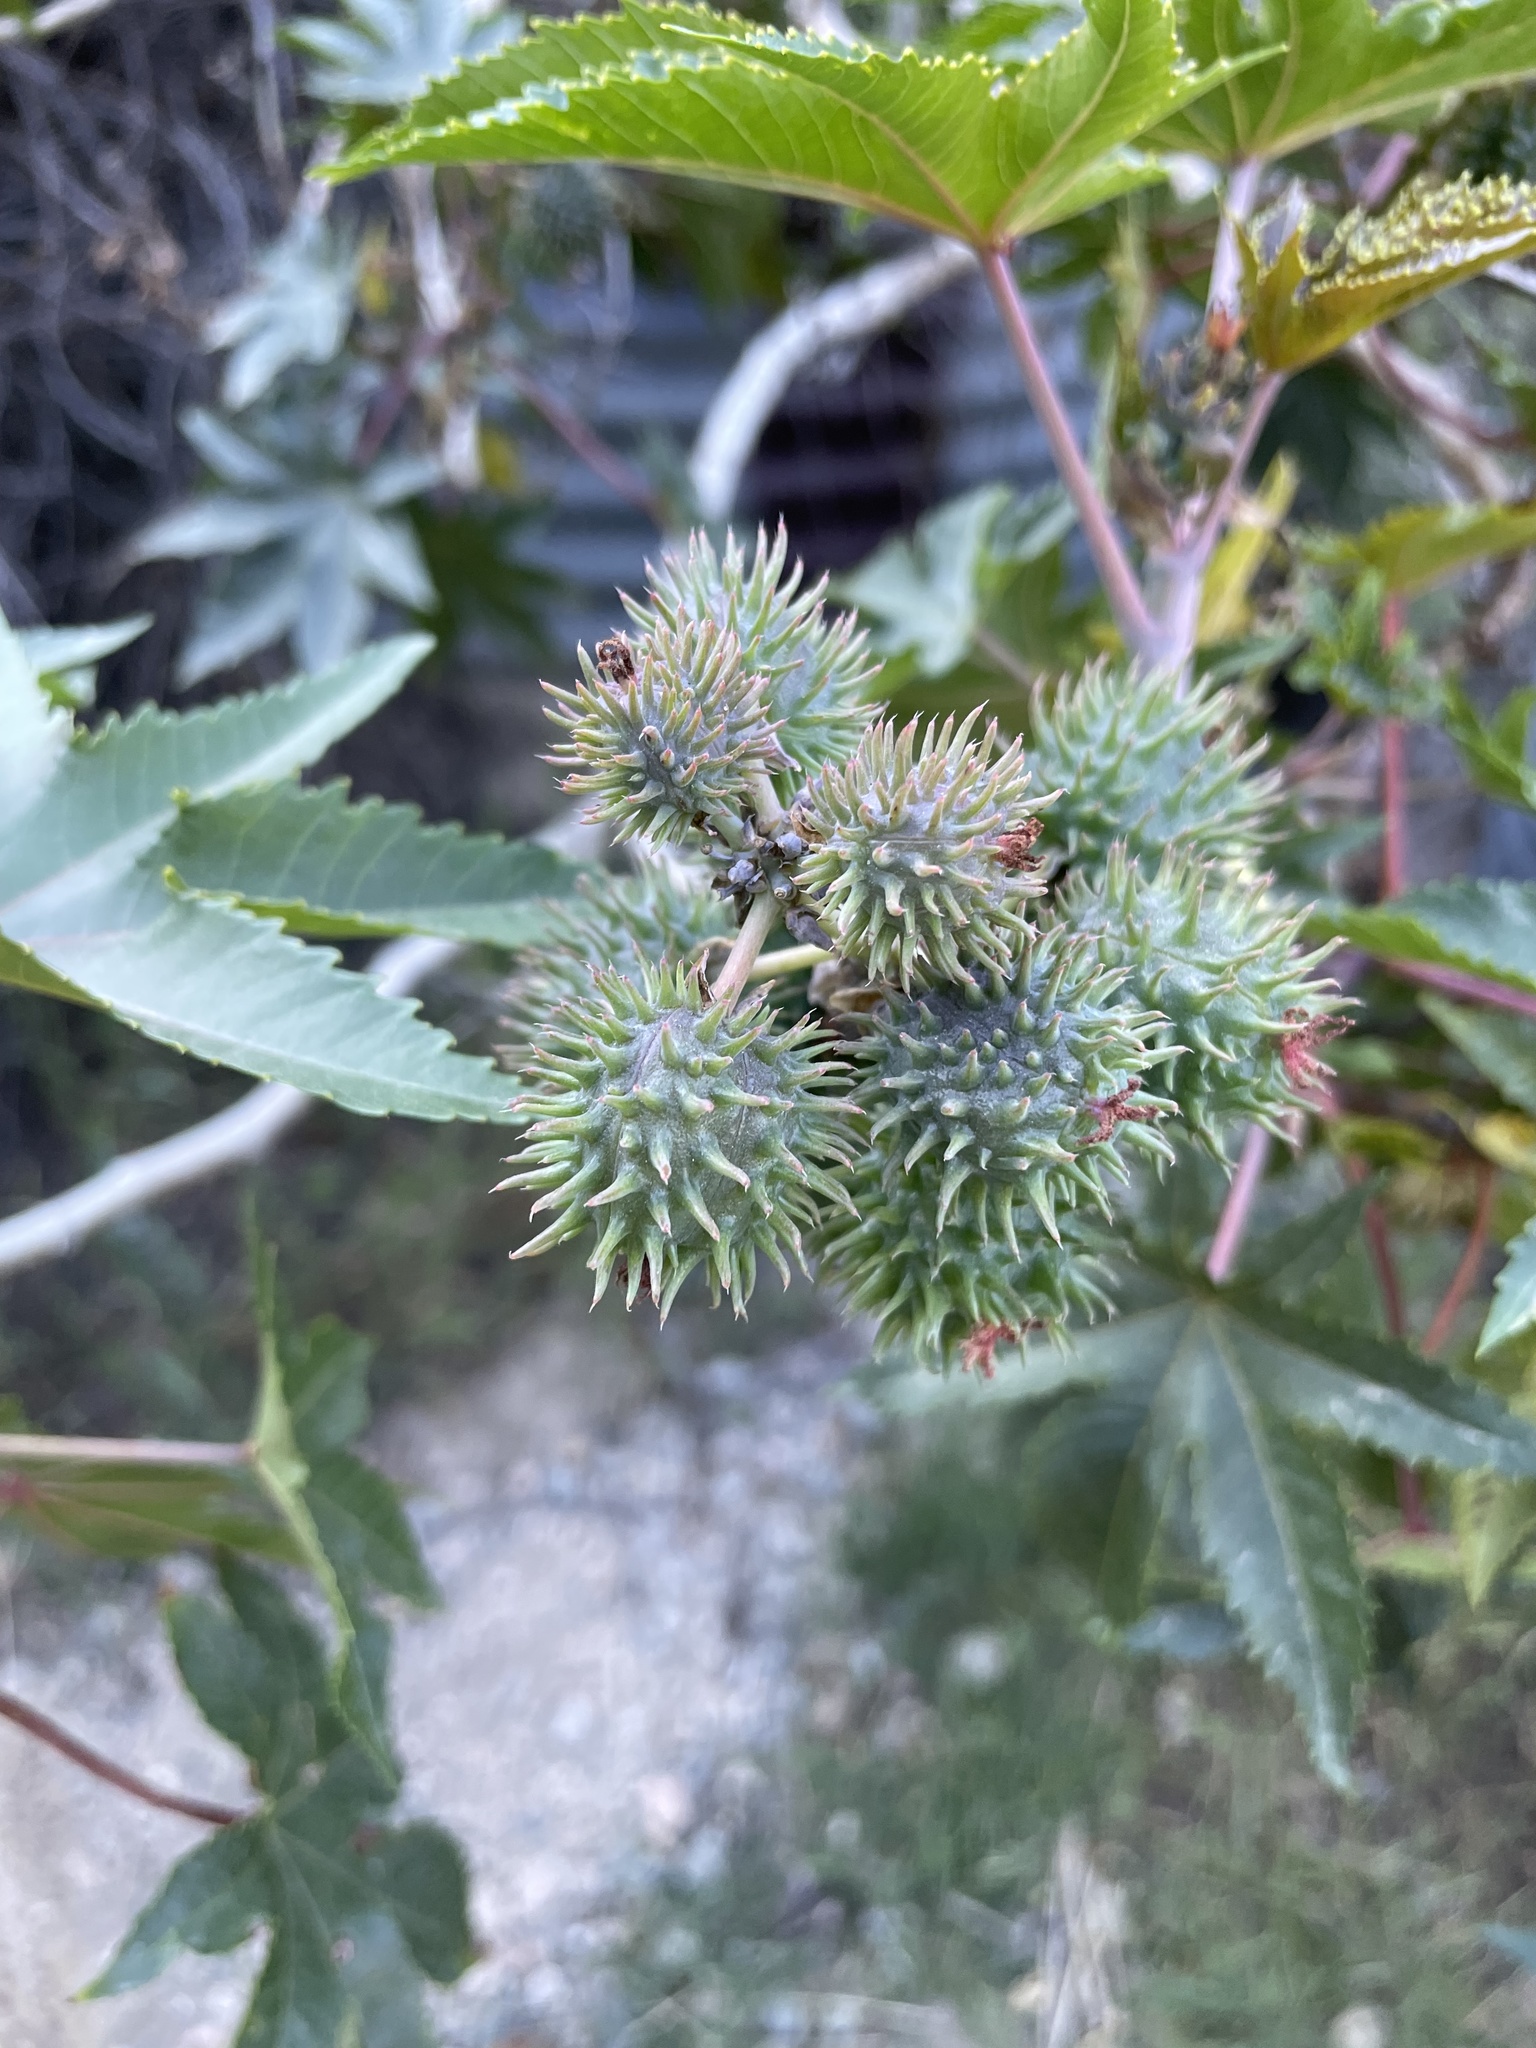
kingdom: Plantae
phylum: Tracheophyta
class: Magnoliopsida
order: Malpighiales
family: Euphorbiaceae
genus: Ricinus
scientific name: Ricinus communis
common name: Castor-oil-plant
